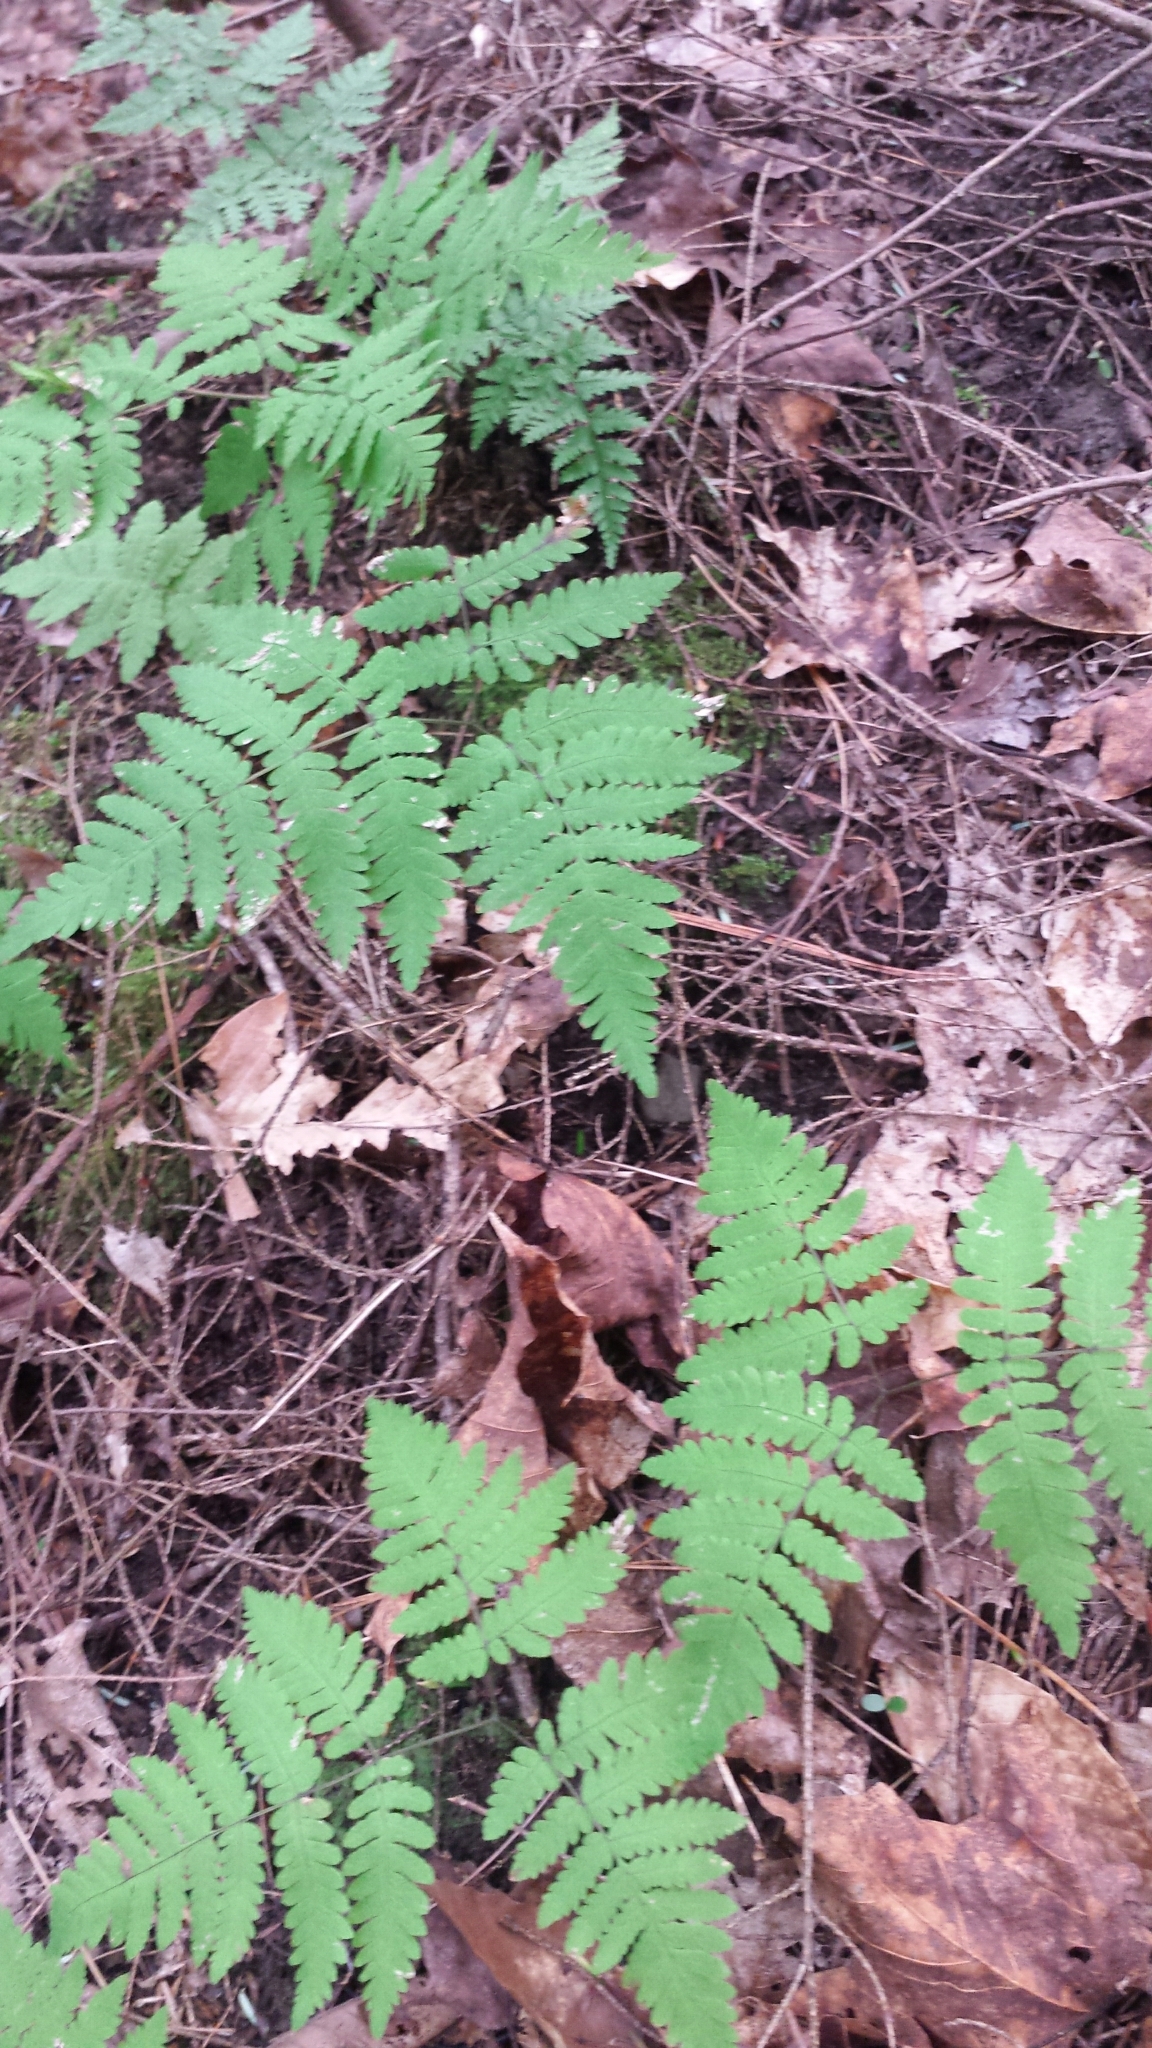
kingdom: Plantae
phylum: Tracheophyta
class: Polypodiopsida
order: Polypodiales
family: Cystopteridaceae
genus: Gymnocarpium
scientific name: Gymnocarpium dryopteris
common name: Oak fern
